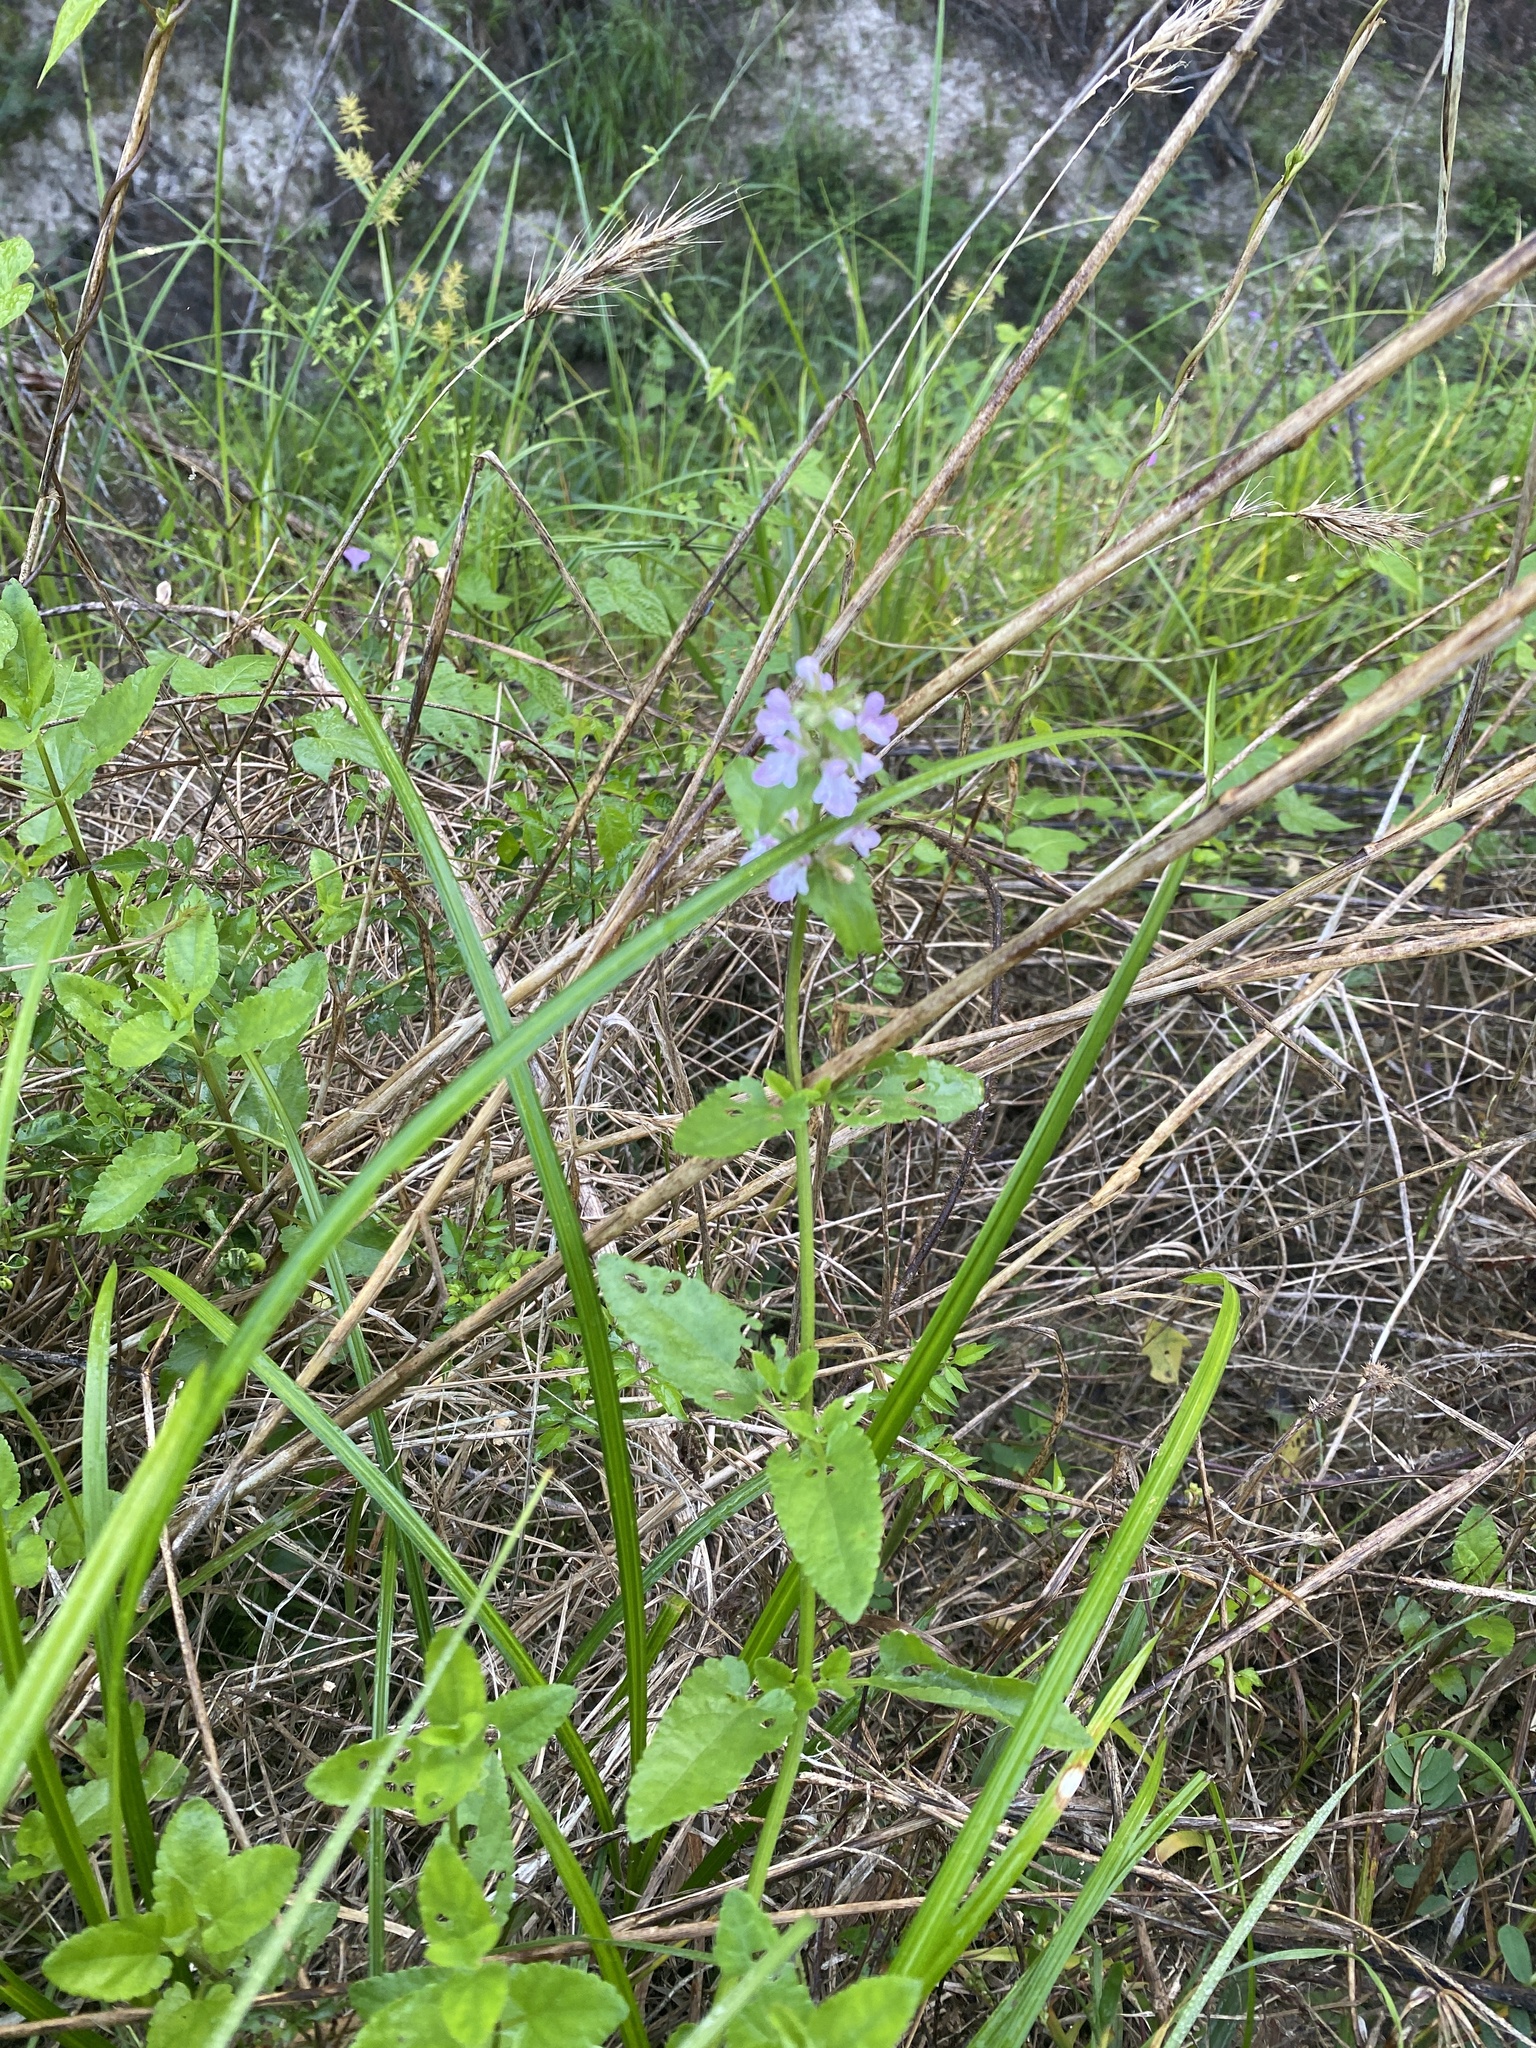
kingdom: Plantae
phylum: Tracheophyta
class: Magnoliopsida
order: Lamiales
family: Lamiaceae
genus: Stachys
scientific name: Stachys floridana
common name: Florida betony
